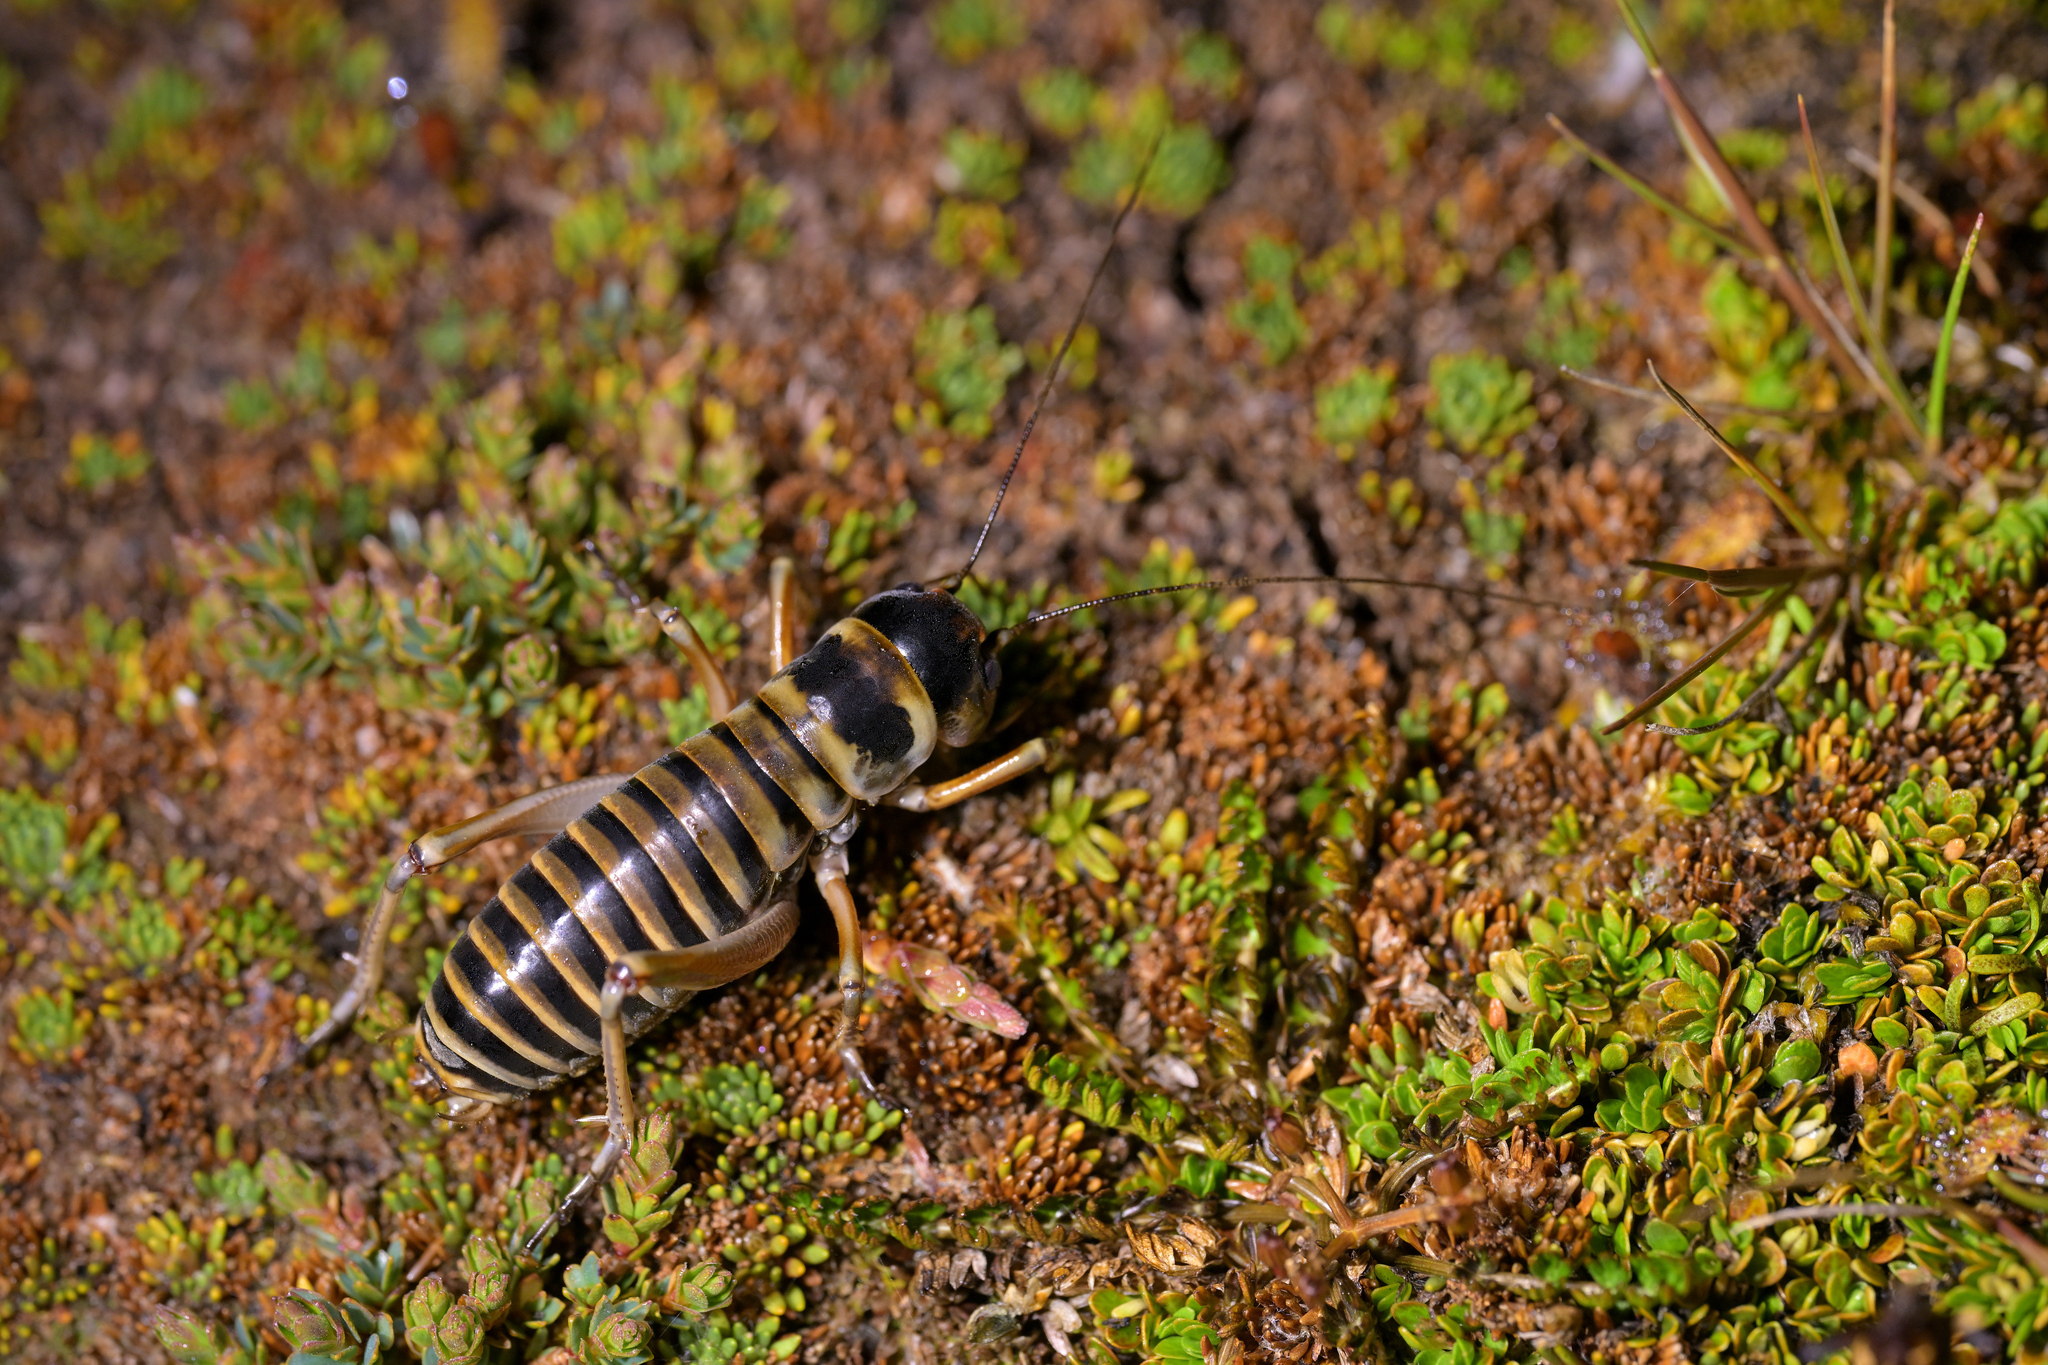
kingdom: Animalia
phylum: Arthropoda
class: Insecta
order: Orthoptera
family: Anostostomatidae
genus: Hemiandrus
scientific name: Hemiandrus focalis
